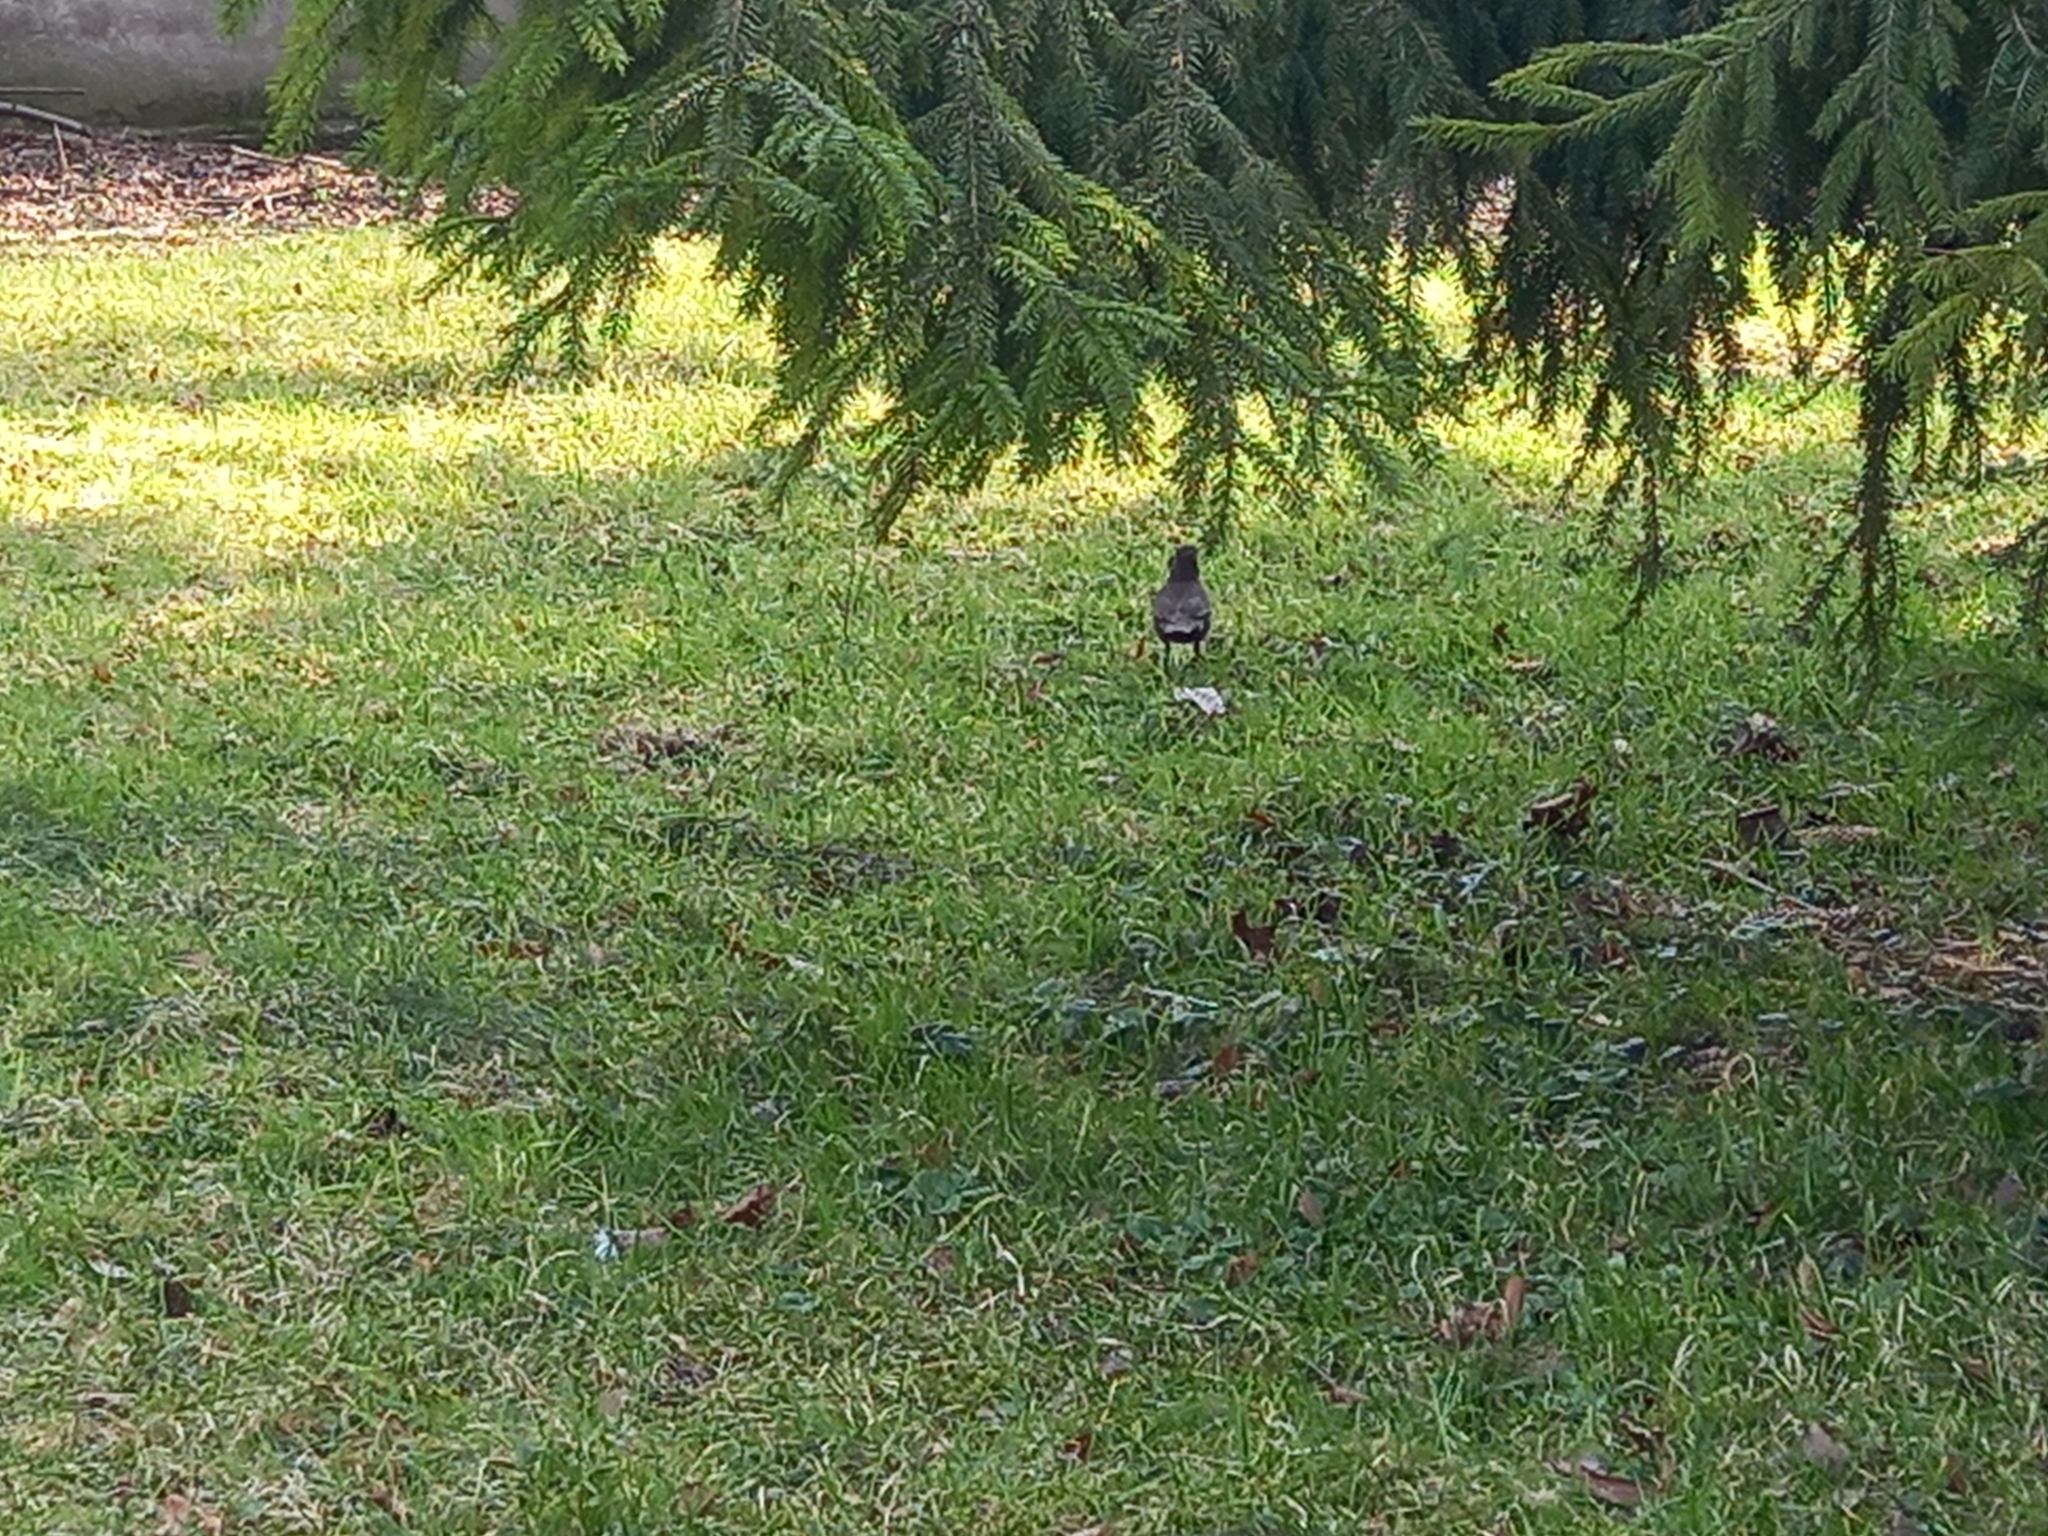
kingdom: Animalia
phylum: Chordata
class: Aves
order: Passeriformes
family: Turdidae
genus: Turdus
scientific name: Turdus merula
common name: Common blackbird
